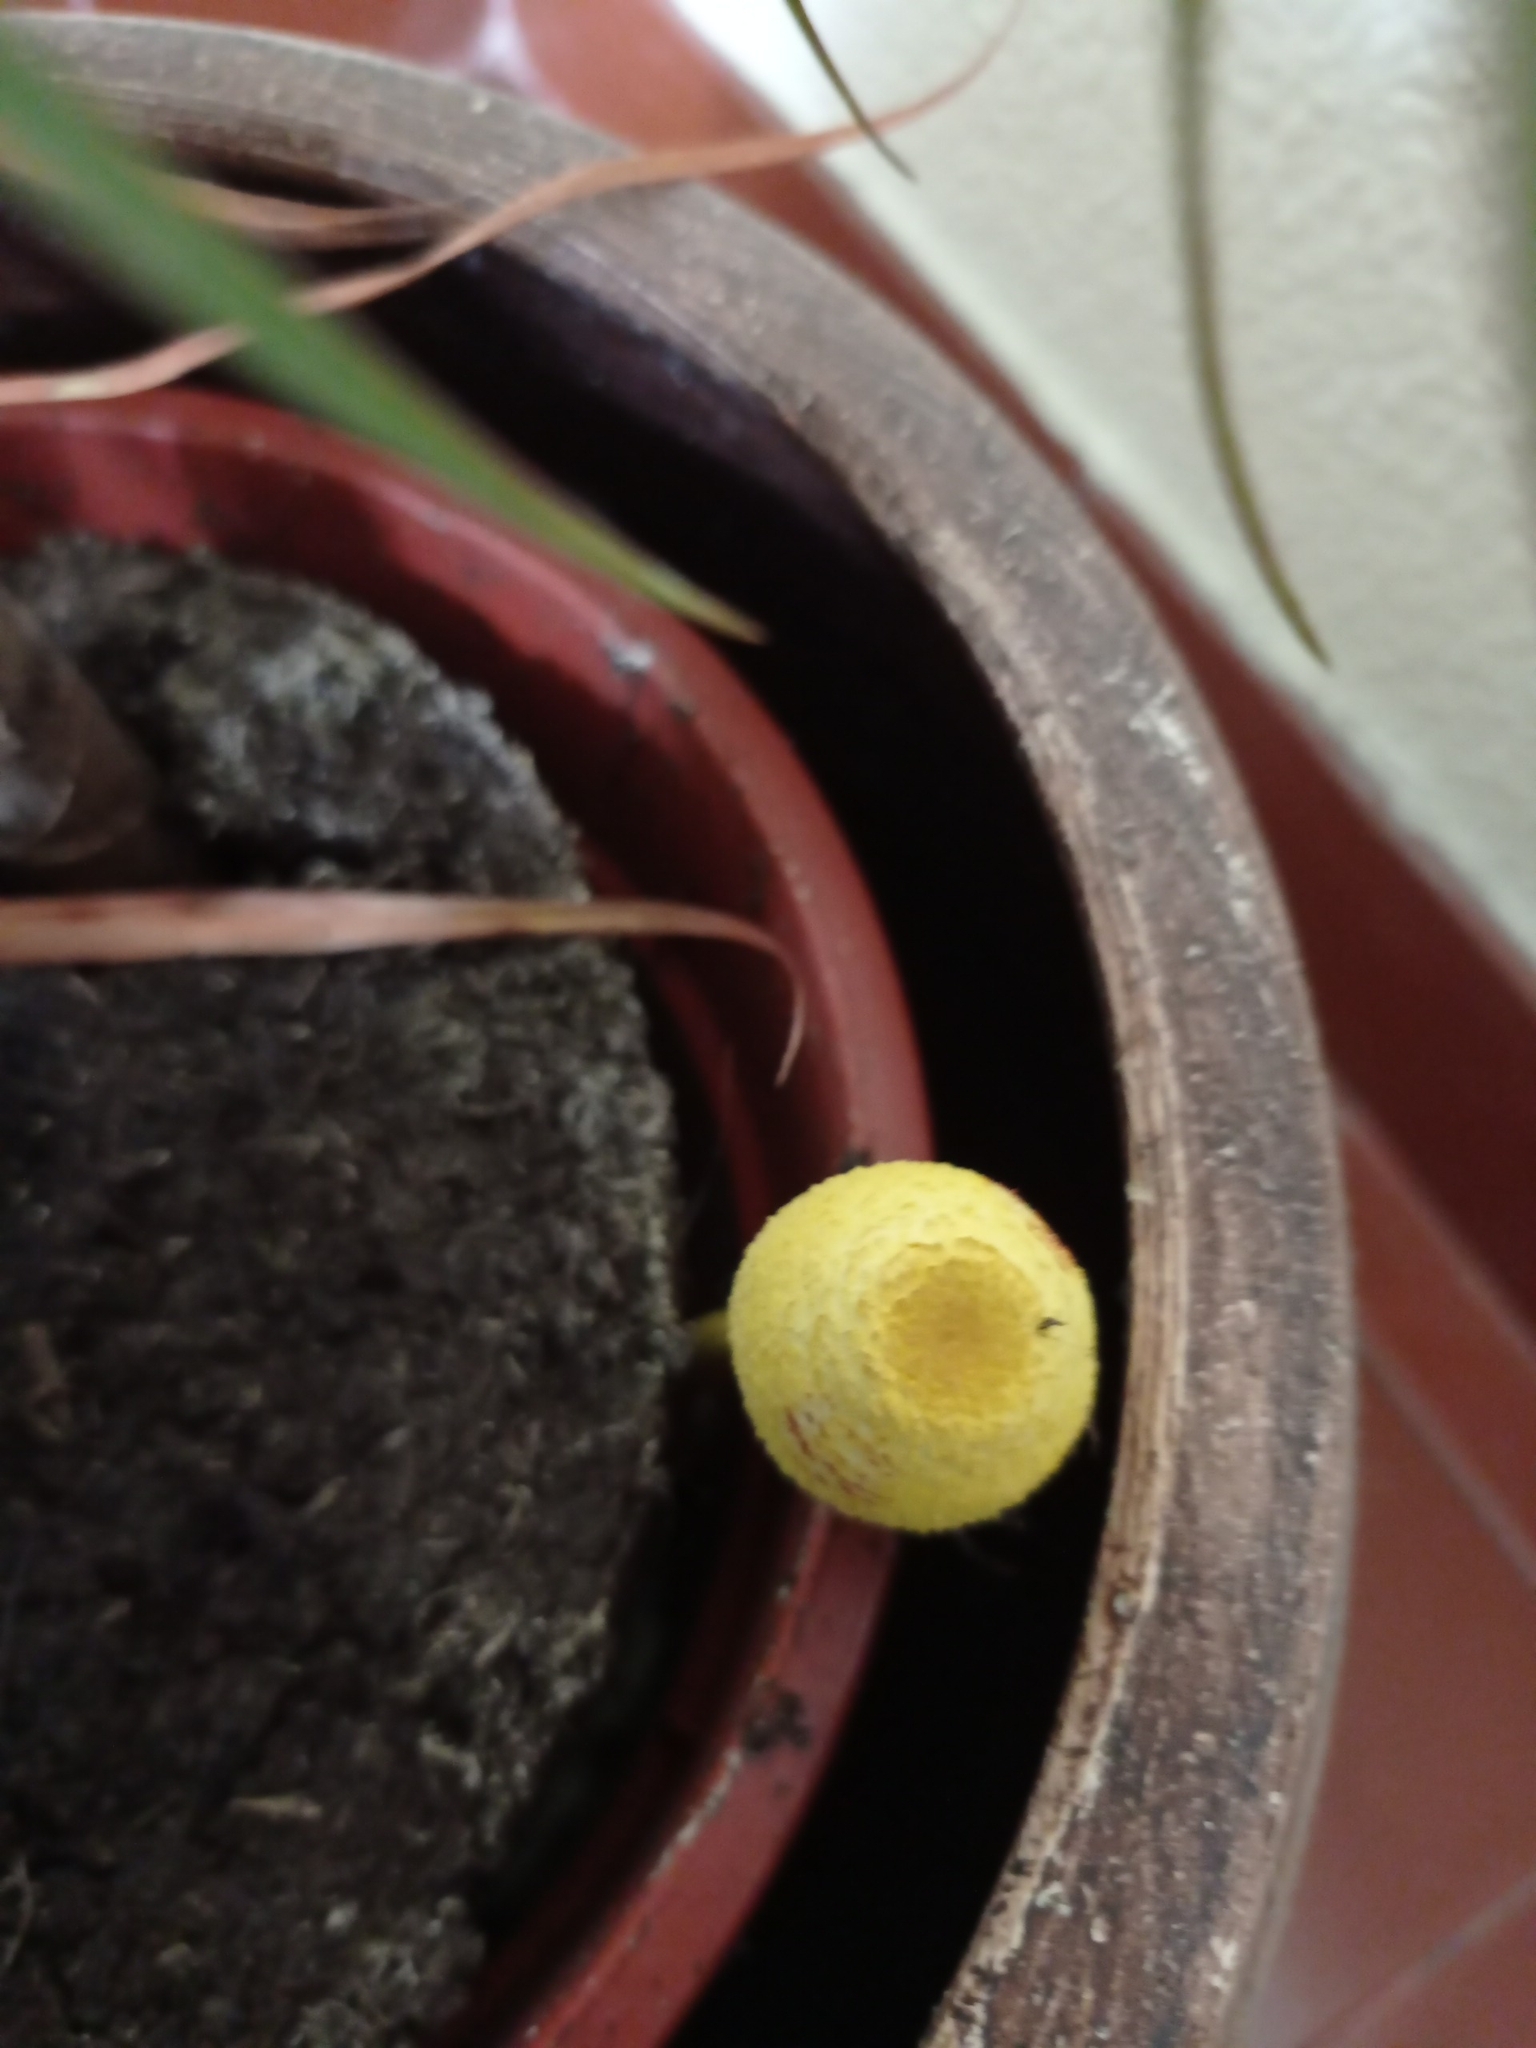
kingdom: Fungi
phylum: Basidiomycota
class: Agaricomycetes
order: Agaricales
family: Agaricaceae
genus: Leucocoprinus
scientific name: Leucocoprinus birnbaumii
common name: Plantpot dapperling
